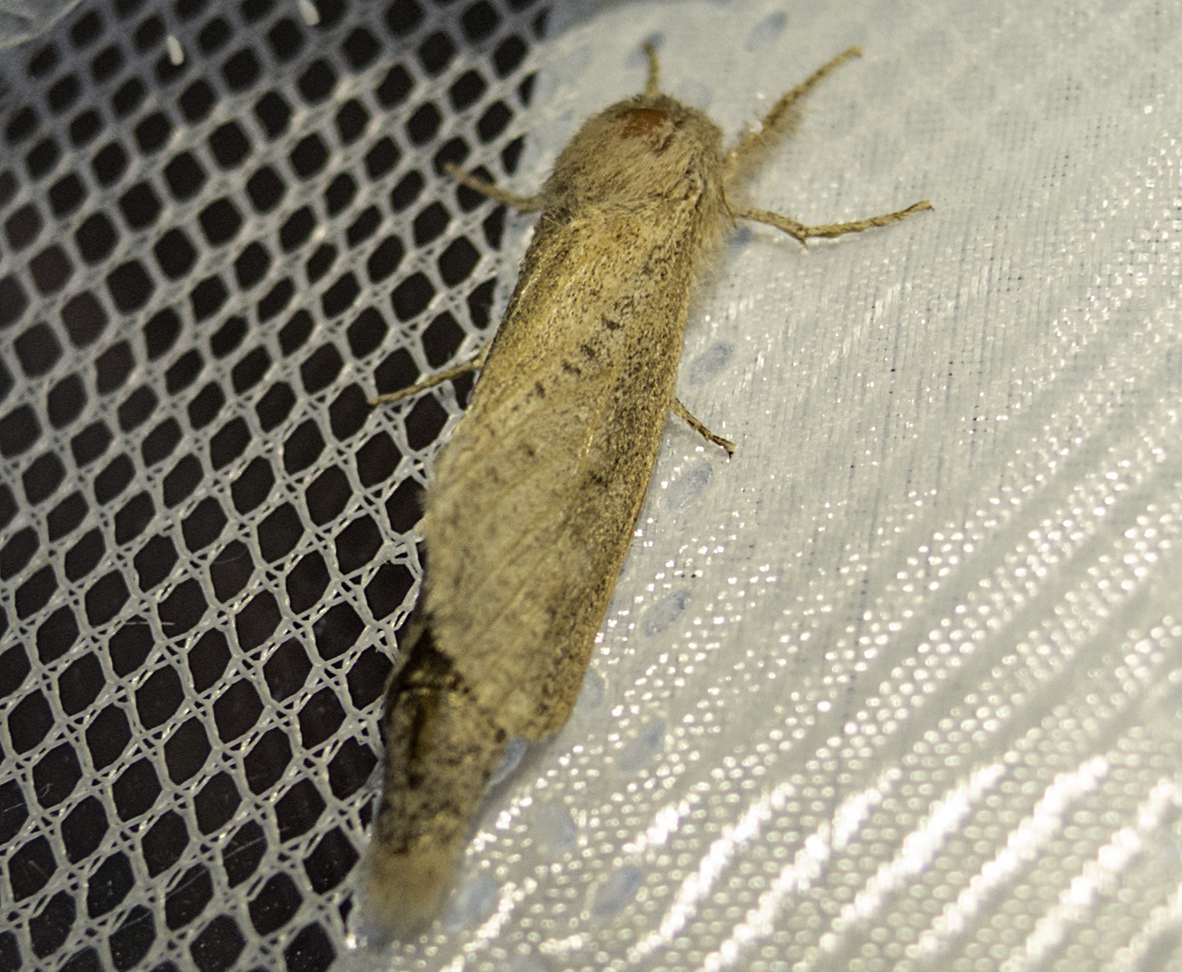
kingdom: Animalia
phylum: Arthropoda
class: Insecta
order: Lepidoptera
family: Cossidae
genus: Phragmataecia
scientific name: Phragmataecia castaneae
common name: Reed leopard
